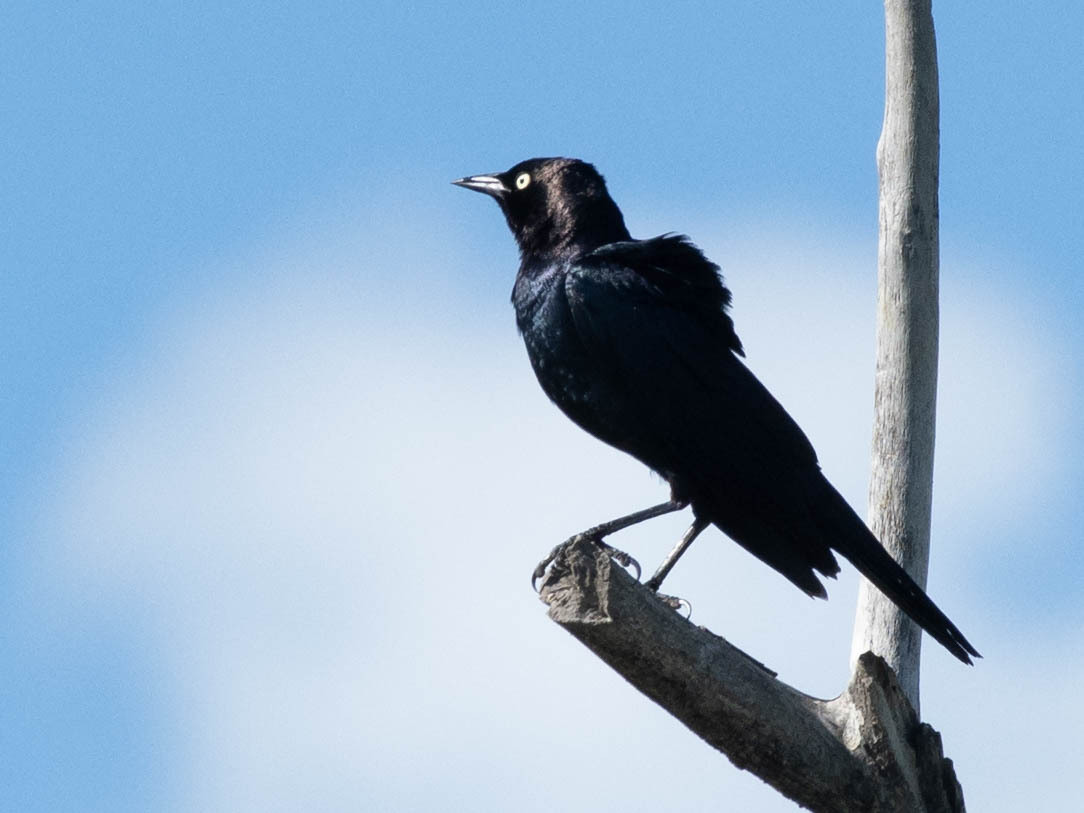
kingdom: Animalia
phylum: Chordata
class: Aves
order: Passeriformes
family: Icteridae
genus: Euphagus
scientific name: Euphagus cyanocephalus
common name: Brewer's blackbird
